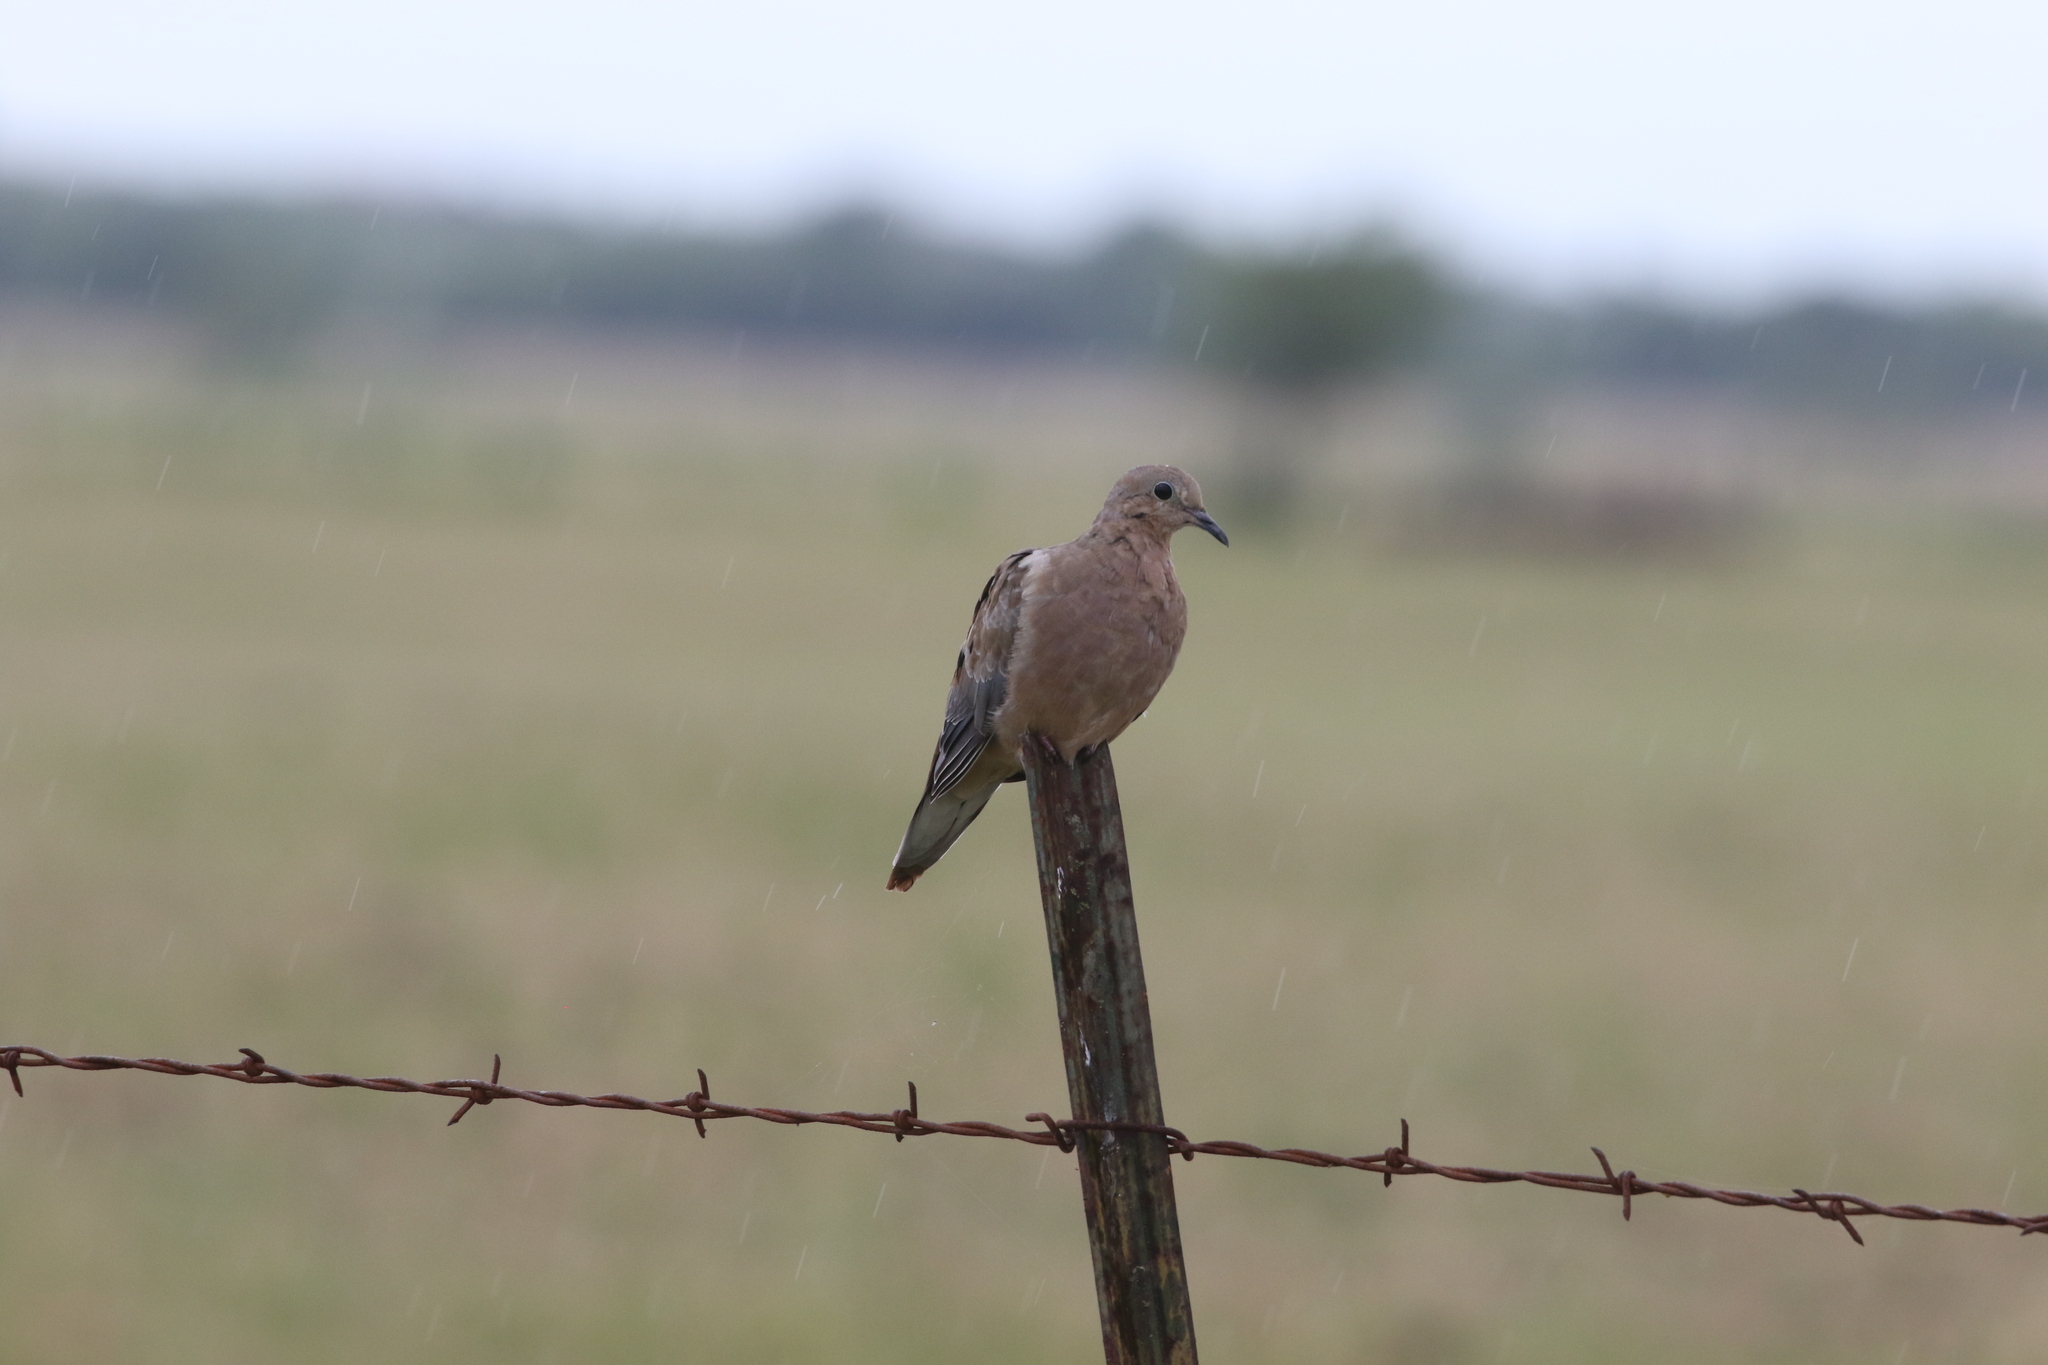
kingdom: Animalia
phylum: Chordata
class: Aves
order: Columbiformes
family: Columbidae
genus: Zenaida
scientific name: Zenaida macroura
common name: Mourning dove
